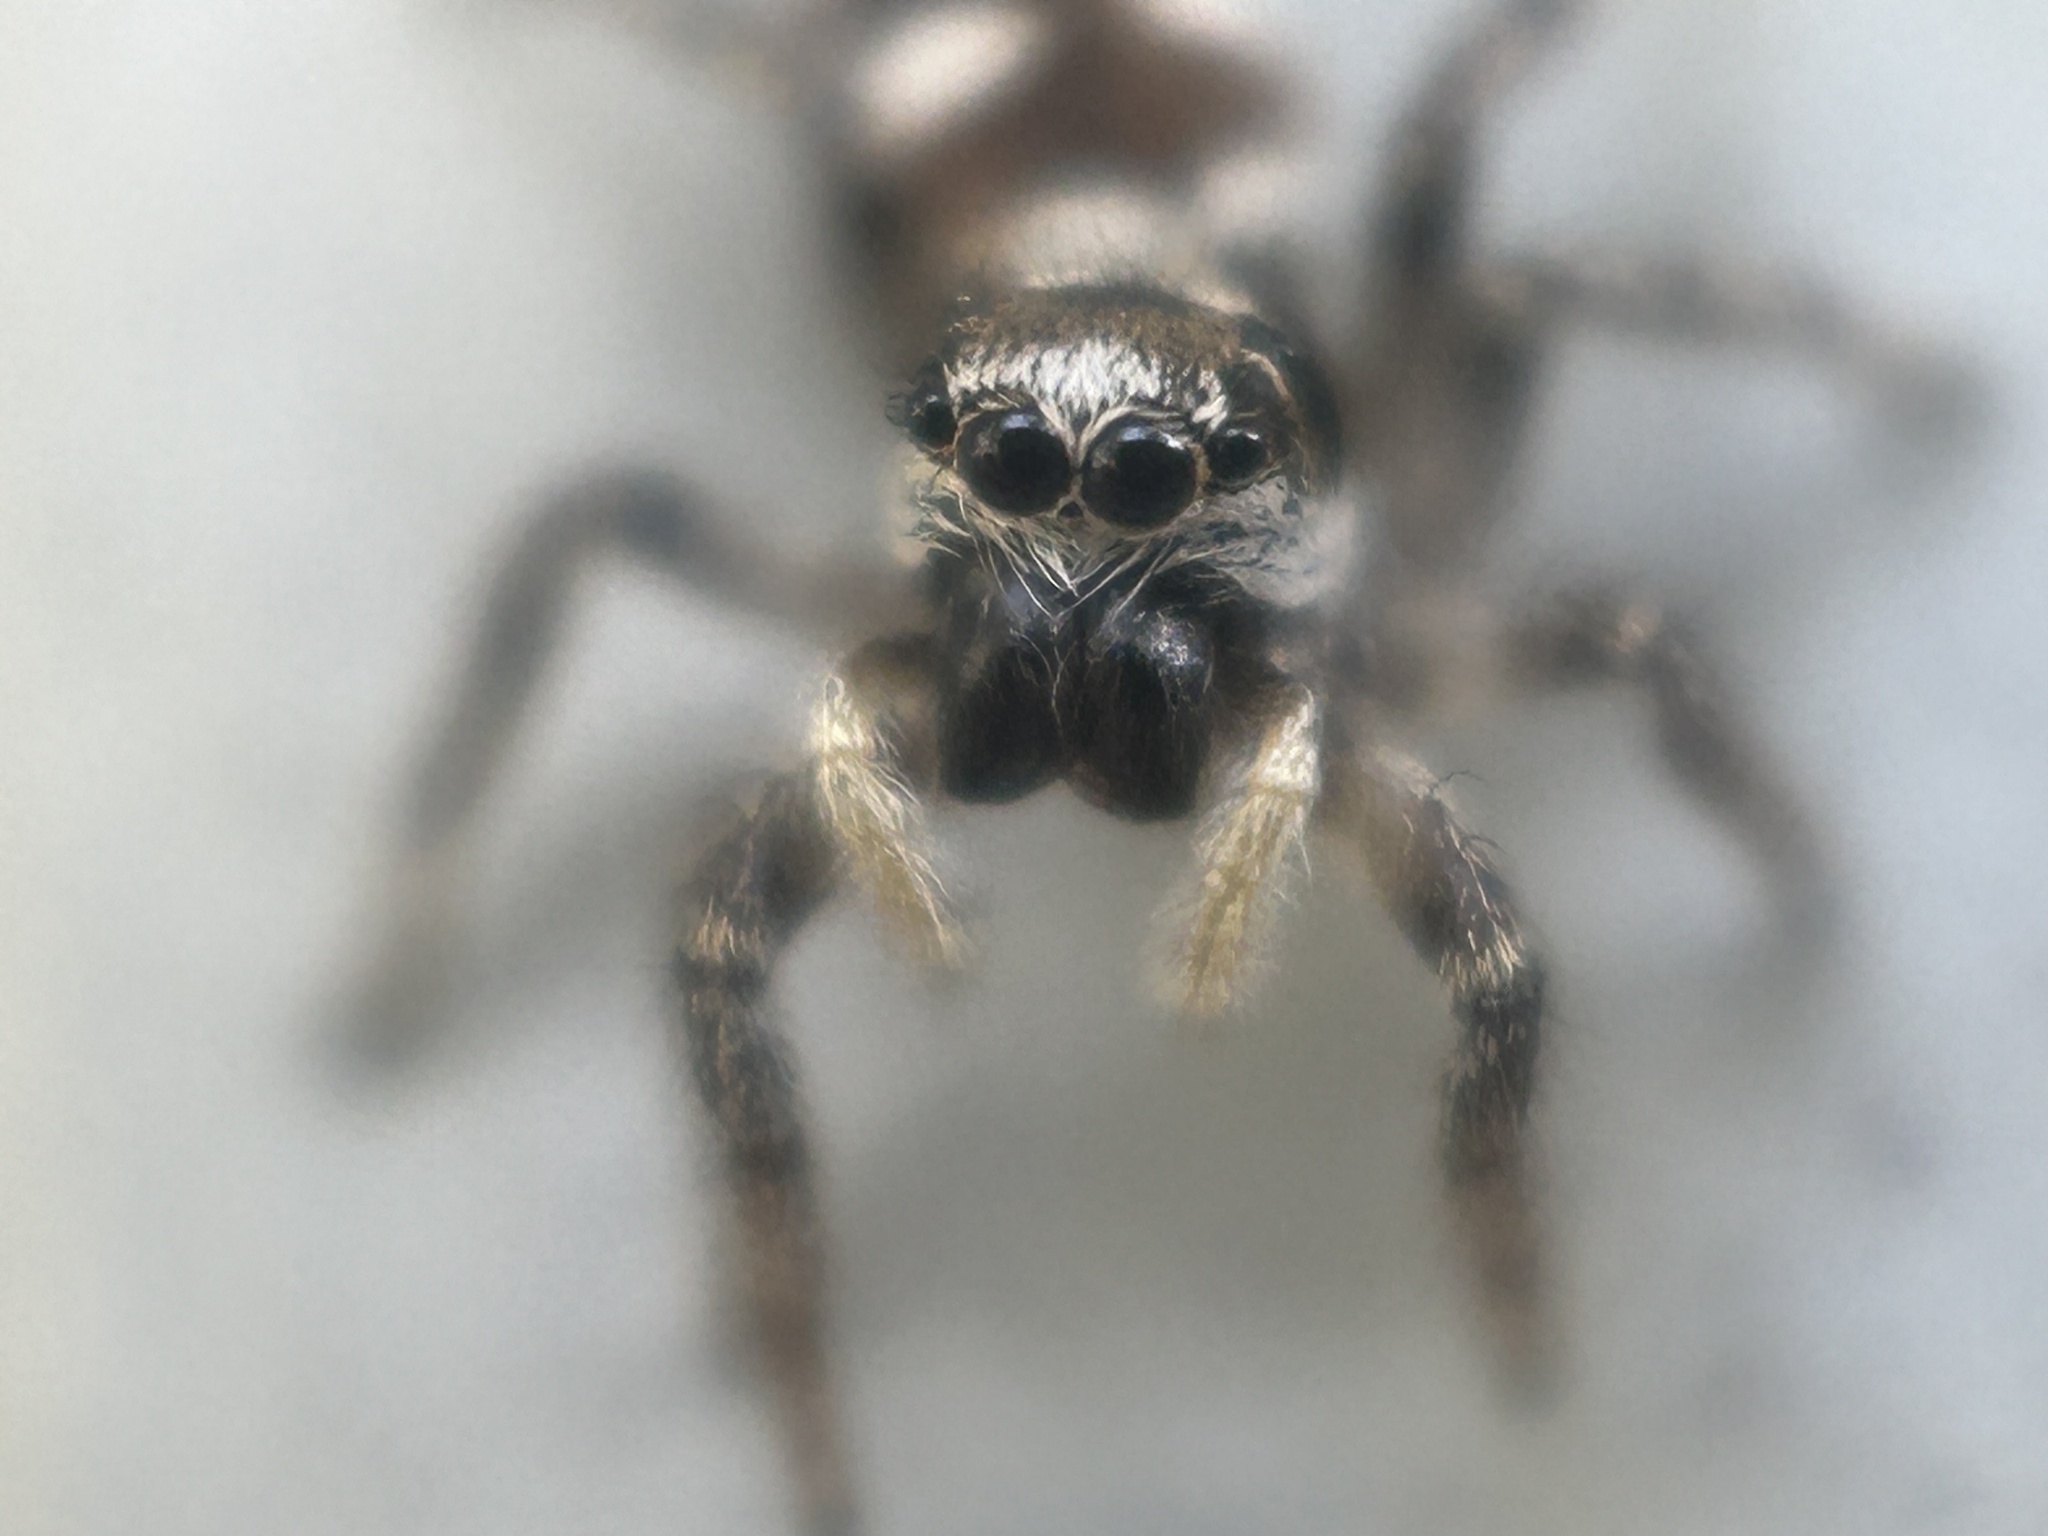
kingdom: Animalia
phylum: Arthropoda
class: Arachnida
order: Araneae
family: Salticidae
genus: Salticus
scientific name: Salticus scenicus
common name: Zebra jumper
